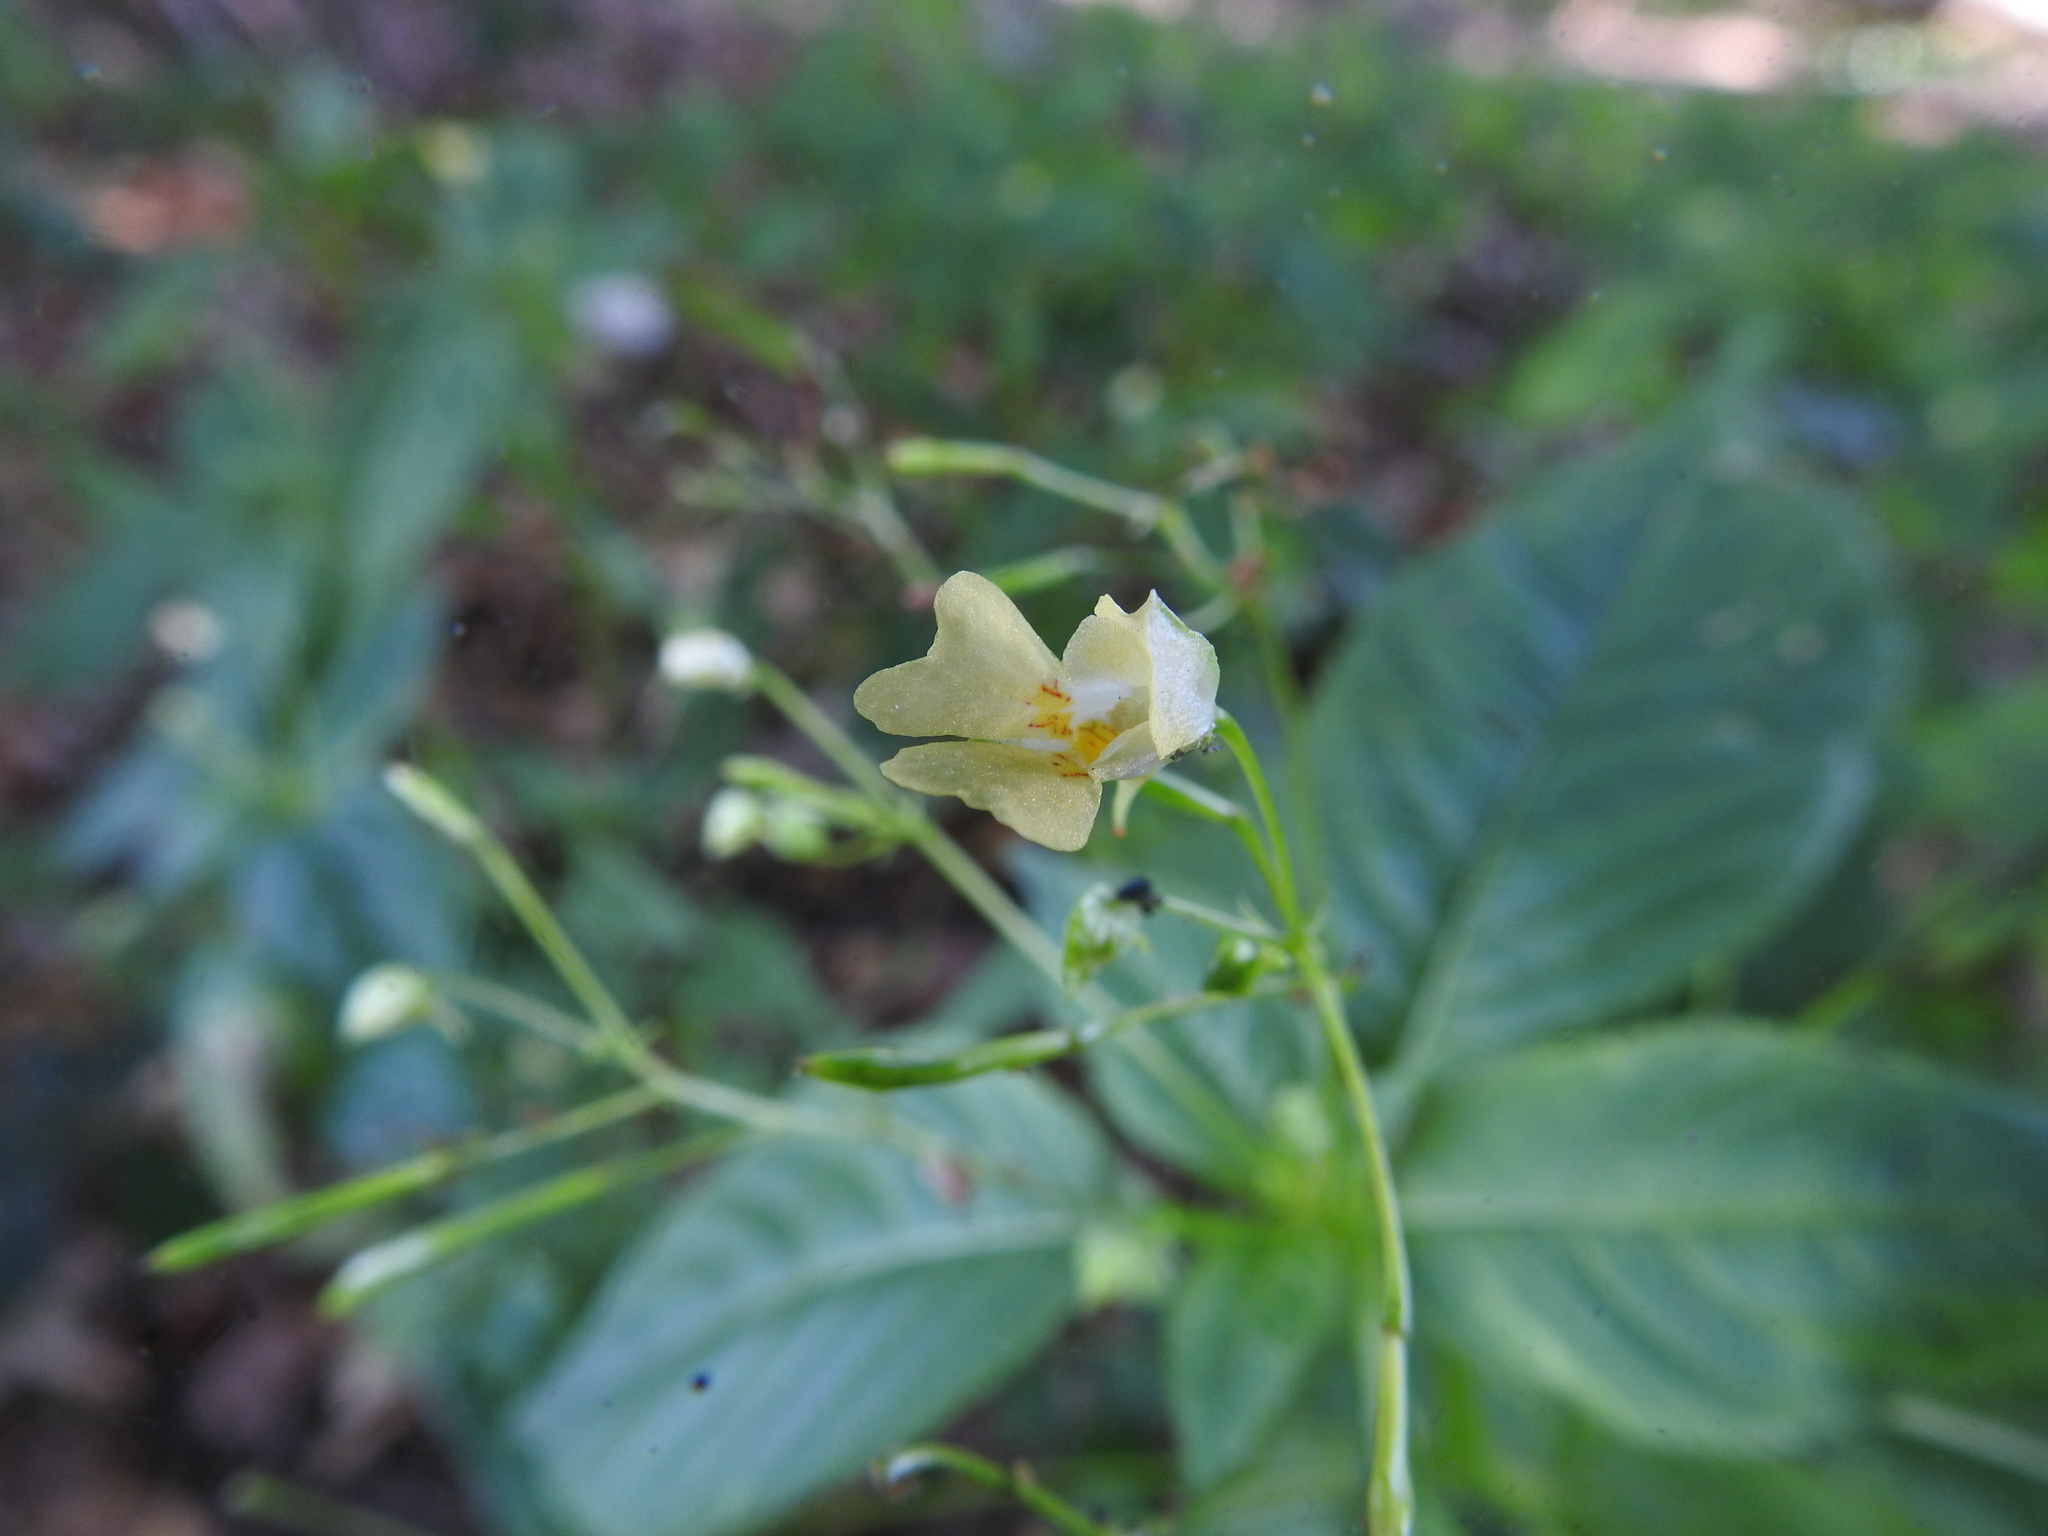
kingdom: Plantae
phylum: Tracheophyta
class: Magnoliopsida
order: Ericales
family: Balsaminaceae
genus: Impatiens
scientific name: Impatiens parviflora
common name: Small balsam
